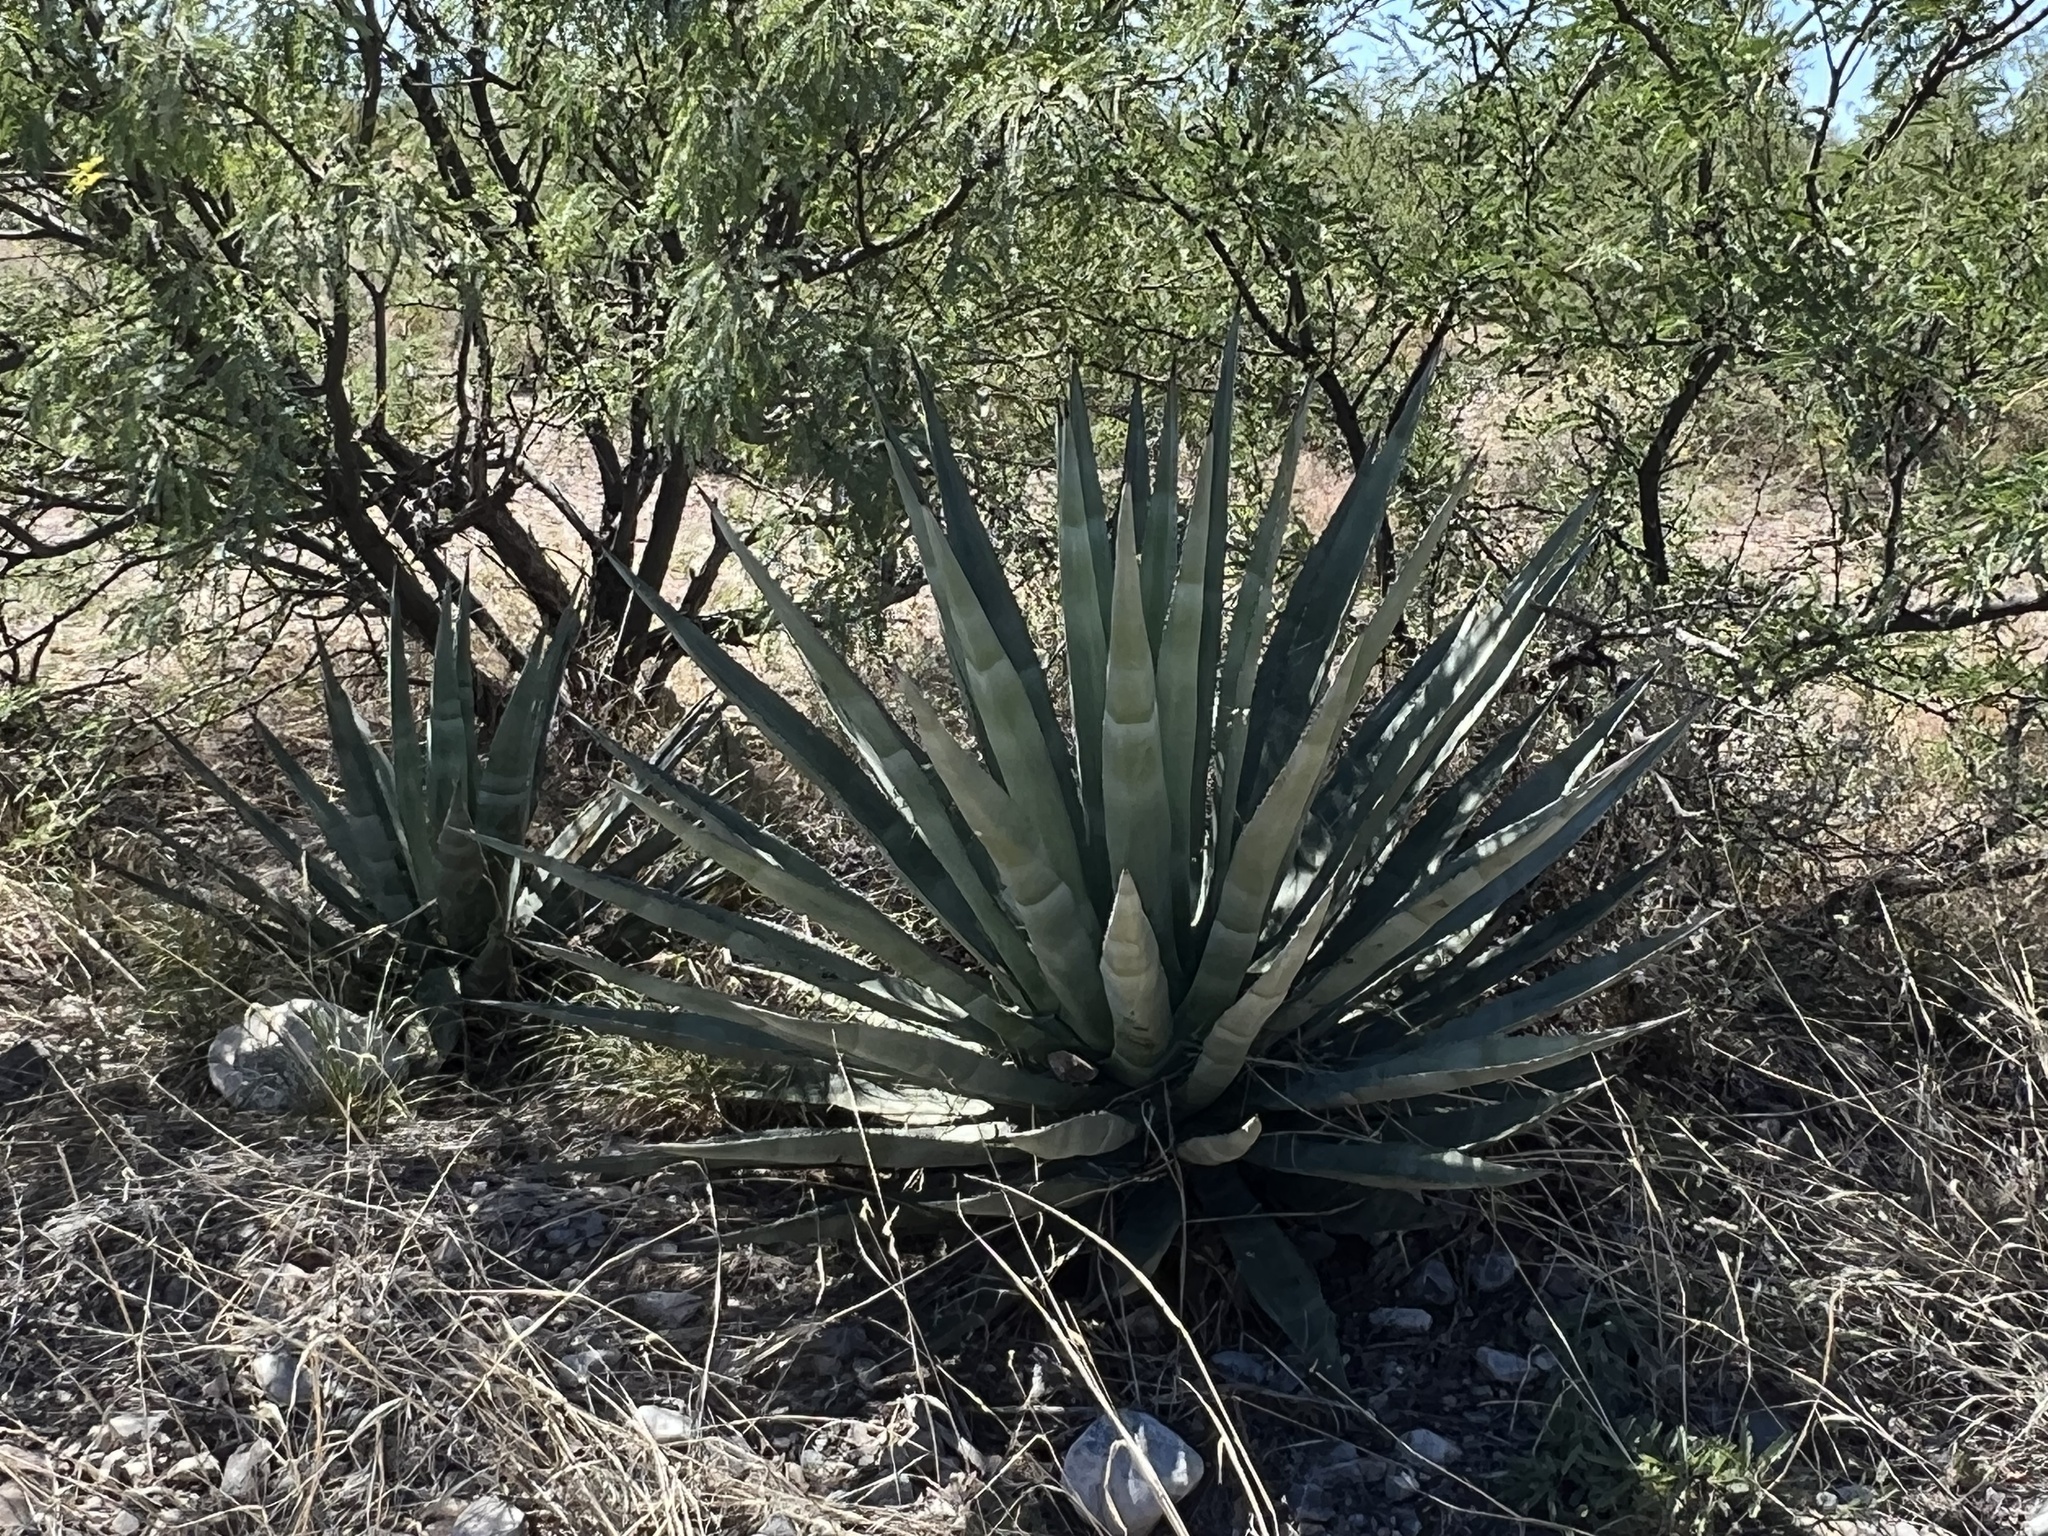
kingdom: Plantae
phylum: Tracheophyta
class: Liliopsida
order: Asparagales
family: Asparagaceae
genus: Agave
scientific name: Agave palmeri
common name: Palmer agave
